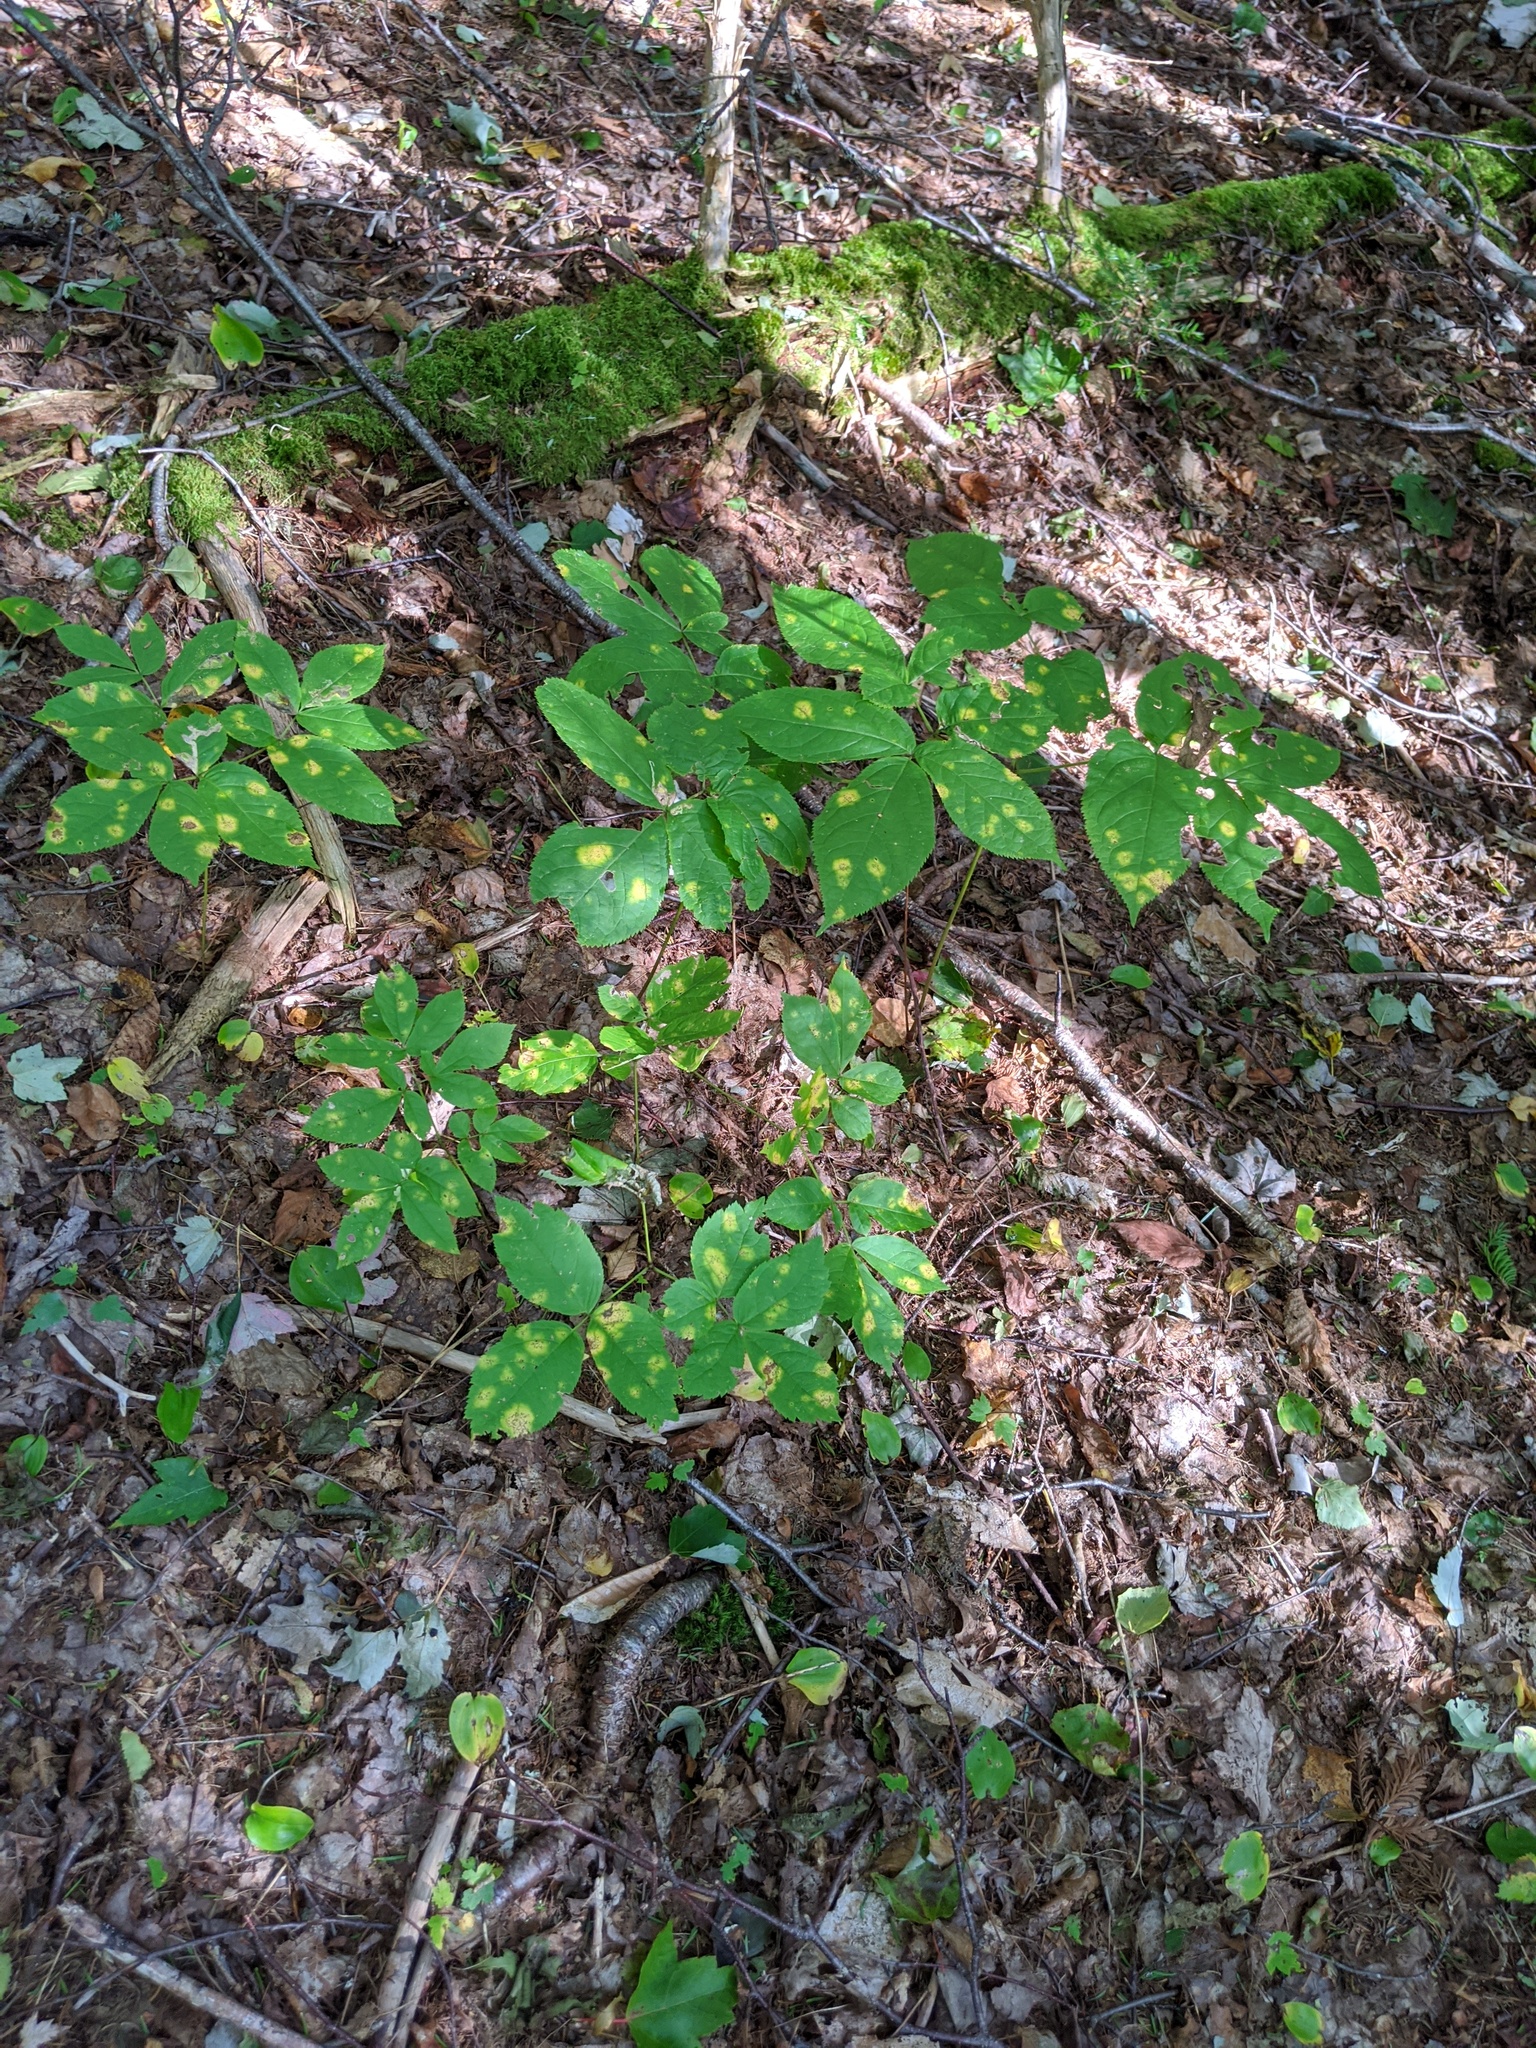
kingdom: Plantae
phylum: Tracheophyta
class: Magnoliopsida
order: Apiales
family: Araliaceae
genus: Aralia
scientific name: Aralia nudicaulis
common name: Wild sarsaparilla
